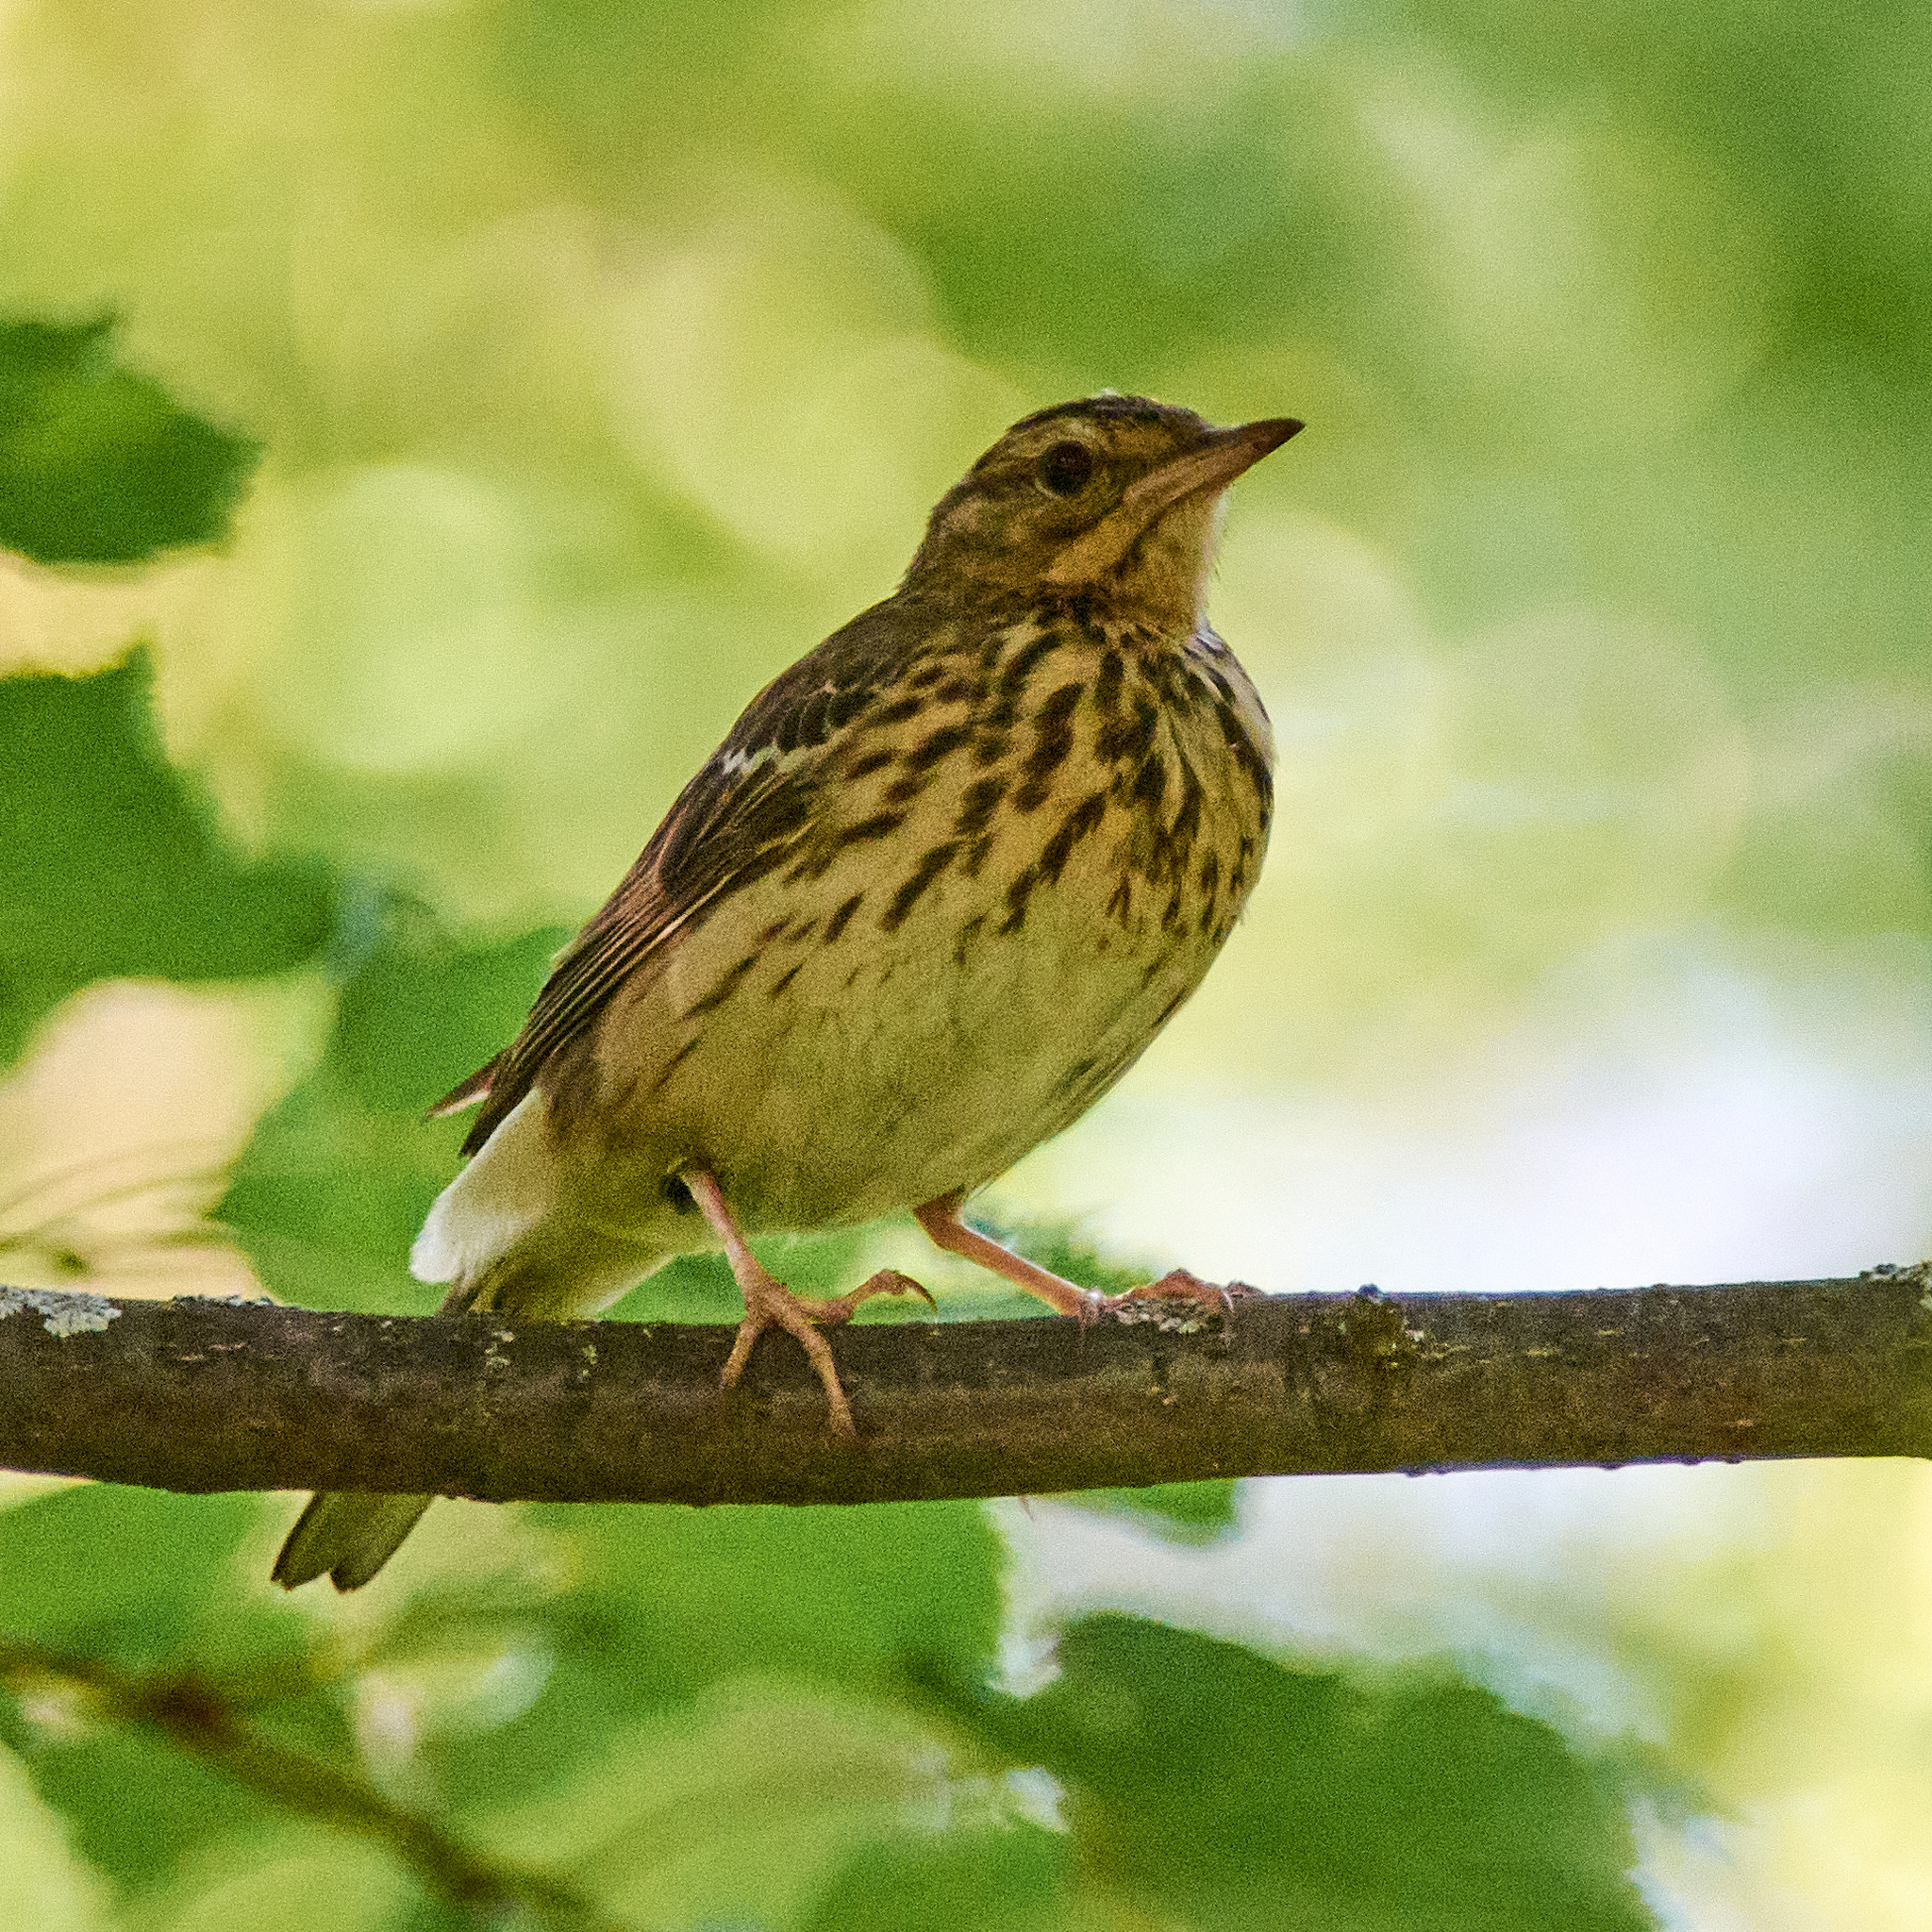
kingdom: Animalia
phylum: Chordata
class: Aves
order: Passeriformes
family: Motacillidae
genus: Anthus
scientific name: Anthus trivialis
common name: Tree pipit
